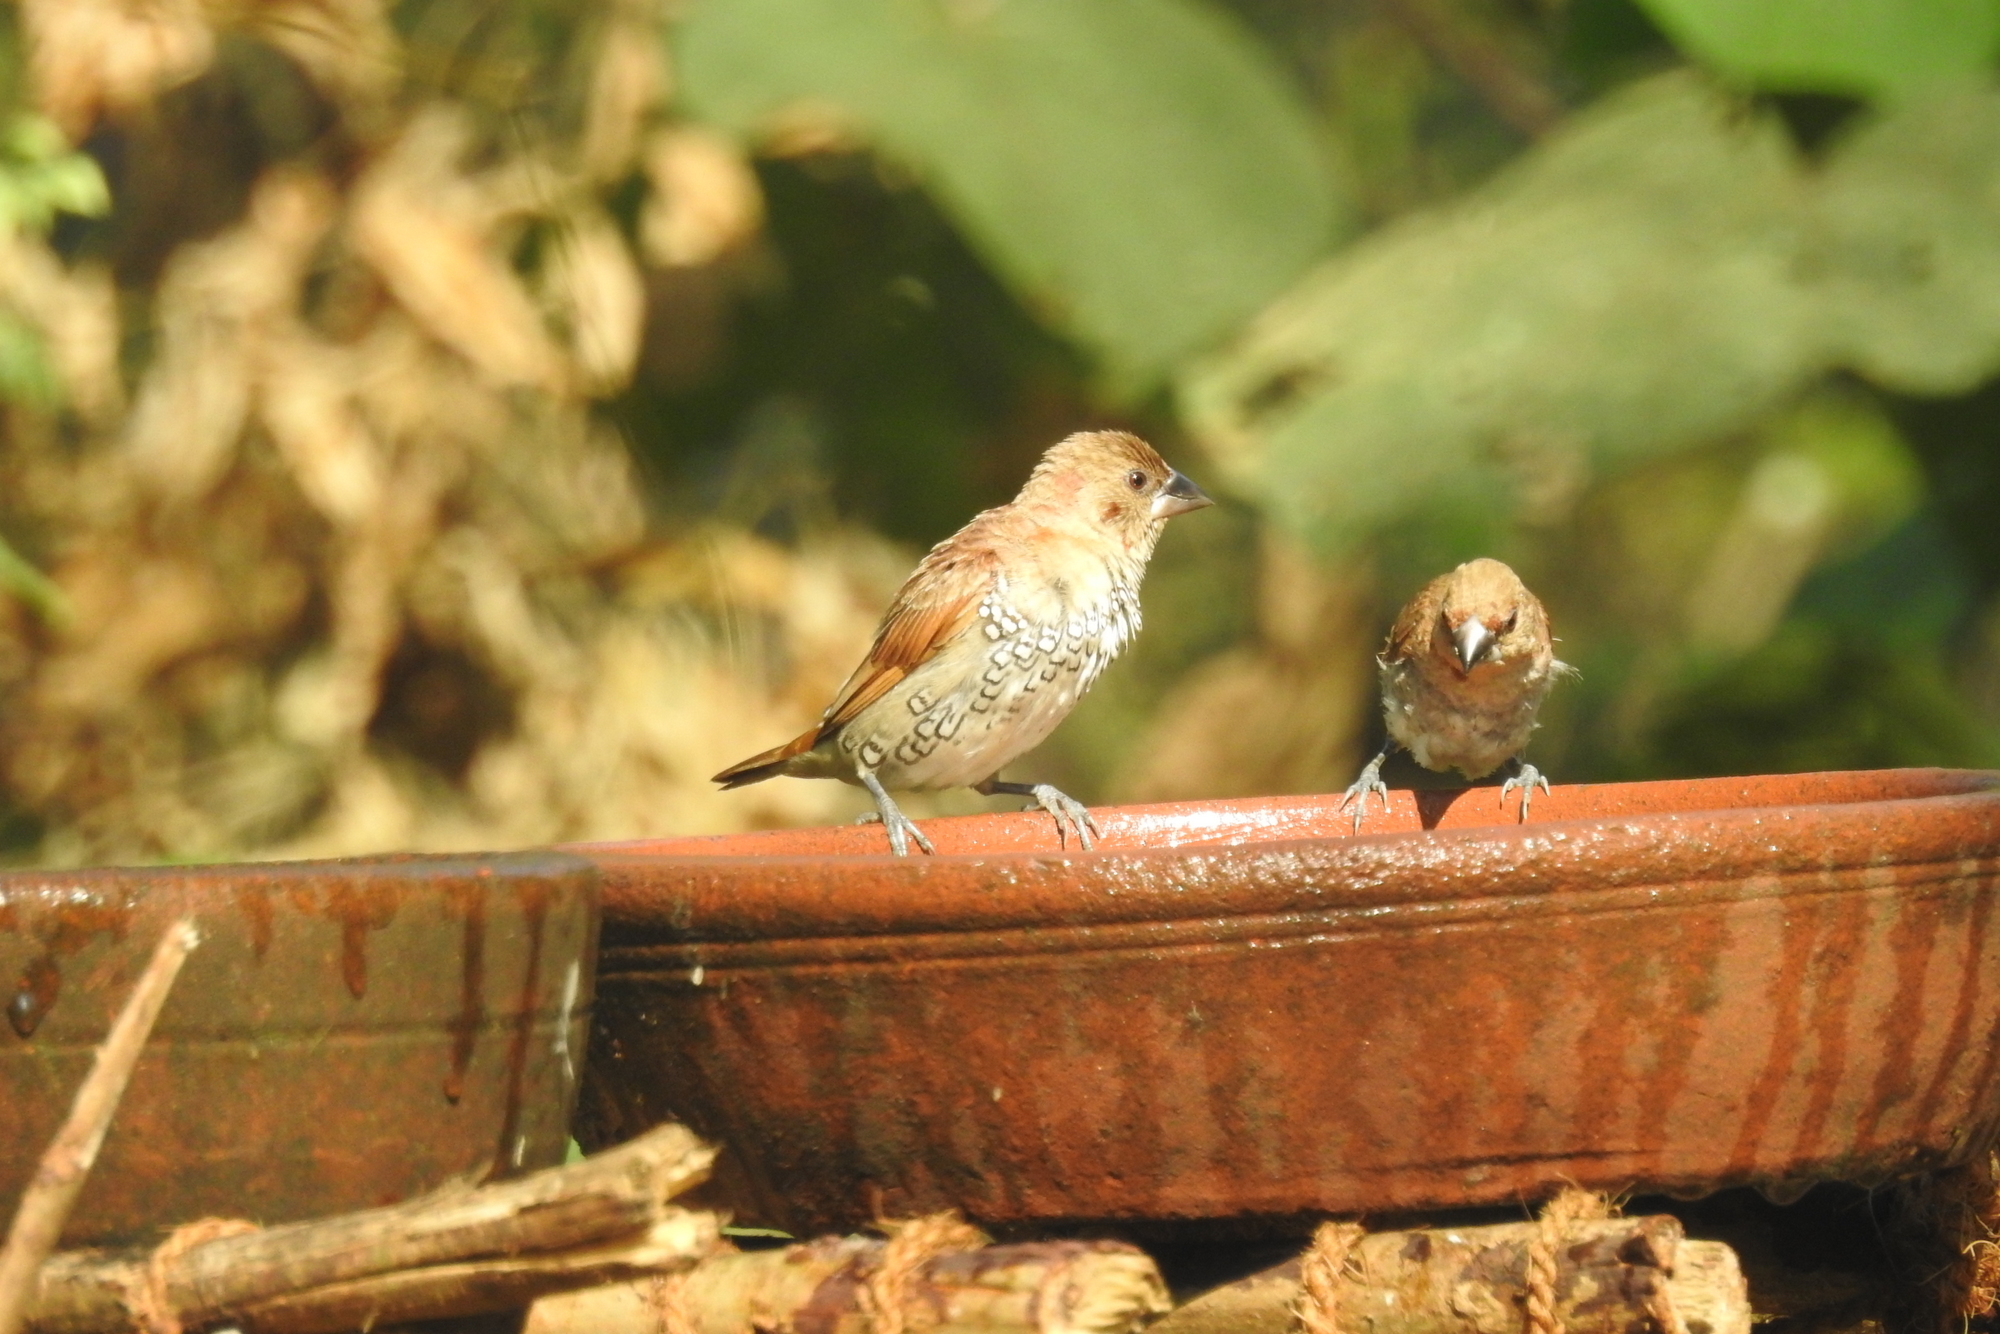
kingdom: Animalia
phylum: Chordata
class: Aves
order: Passeriformes
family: Estrildidae
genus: Lonchura
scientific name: Lonchura punctulata
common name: Scaly-breasted munia
